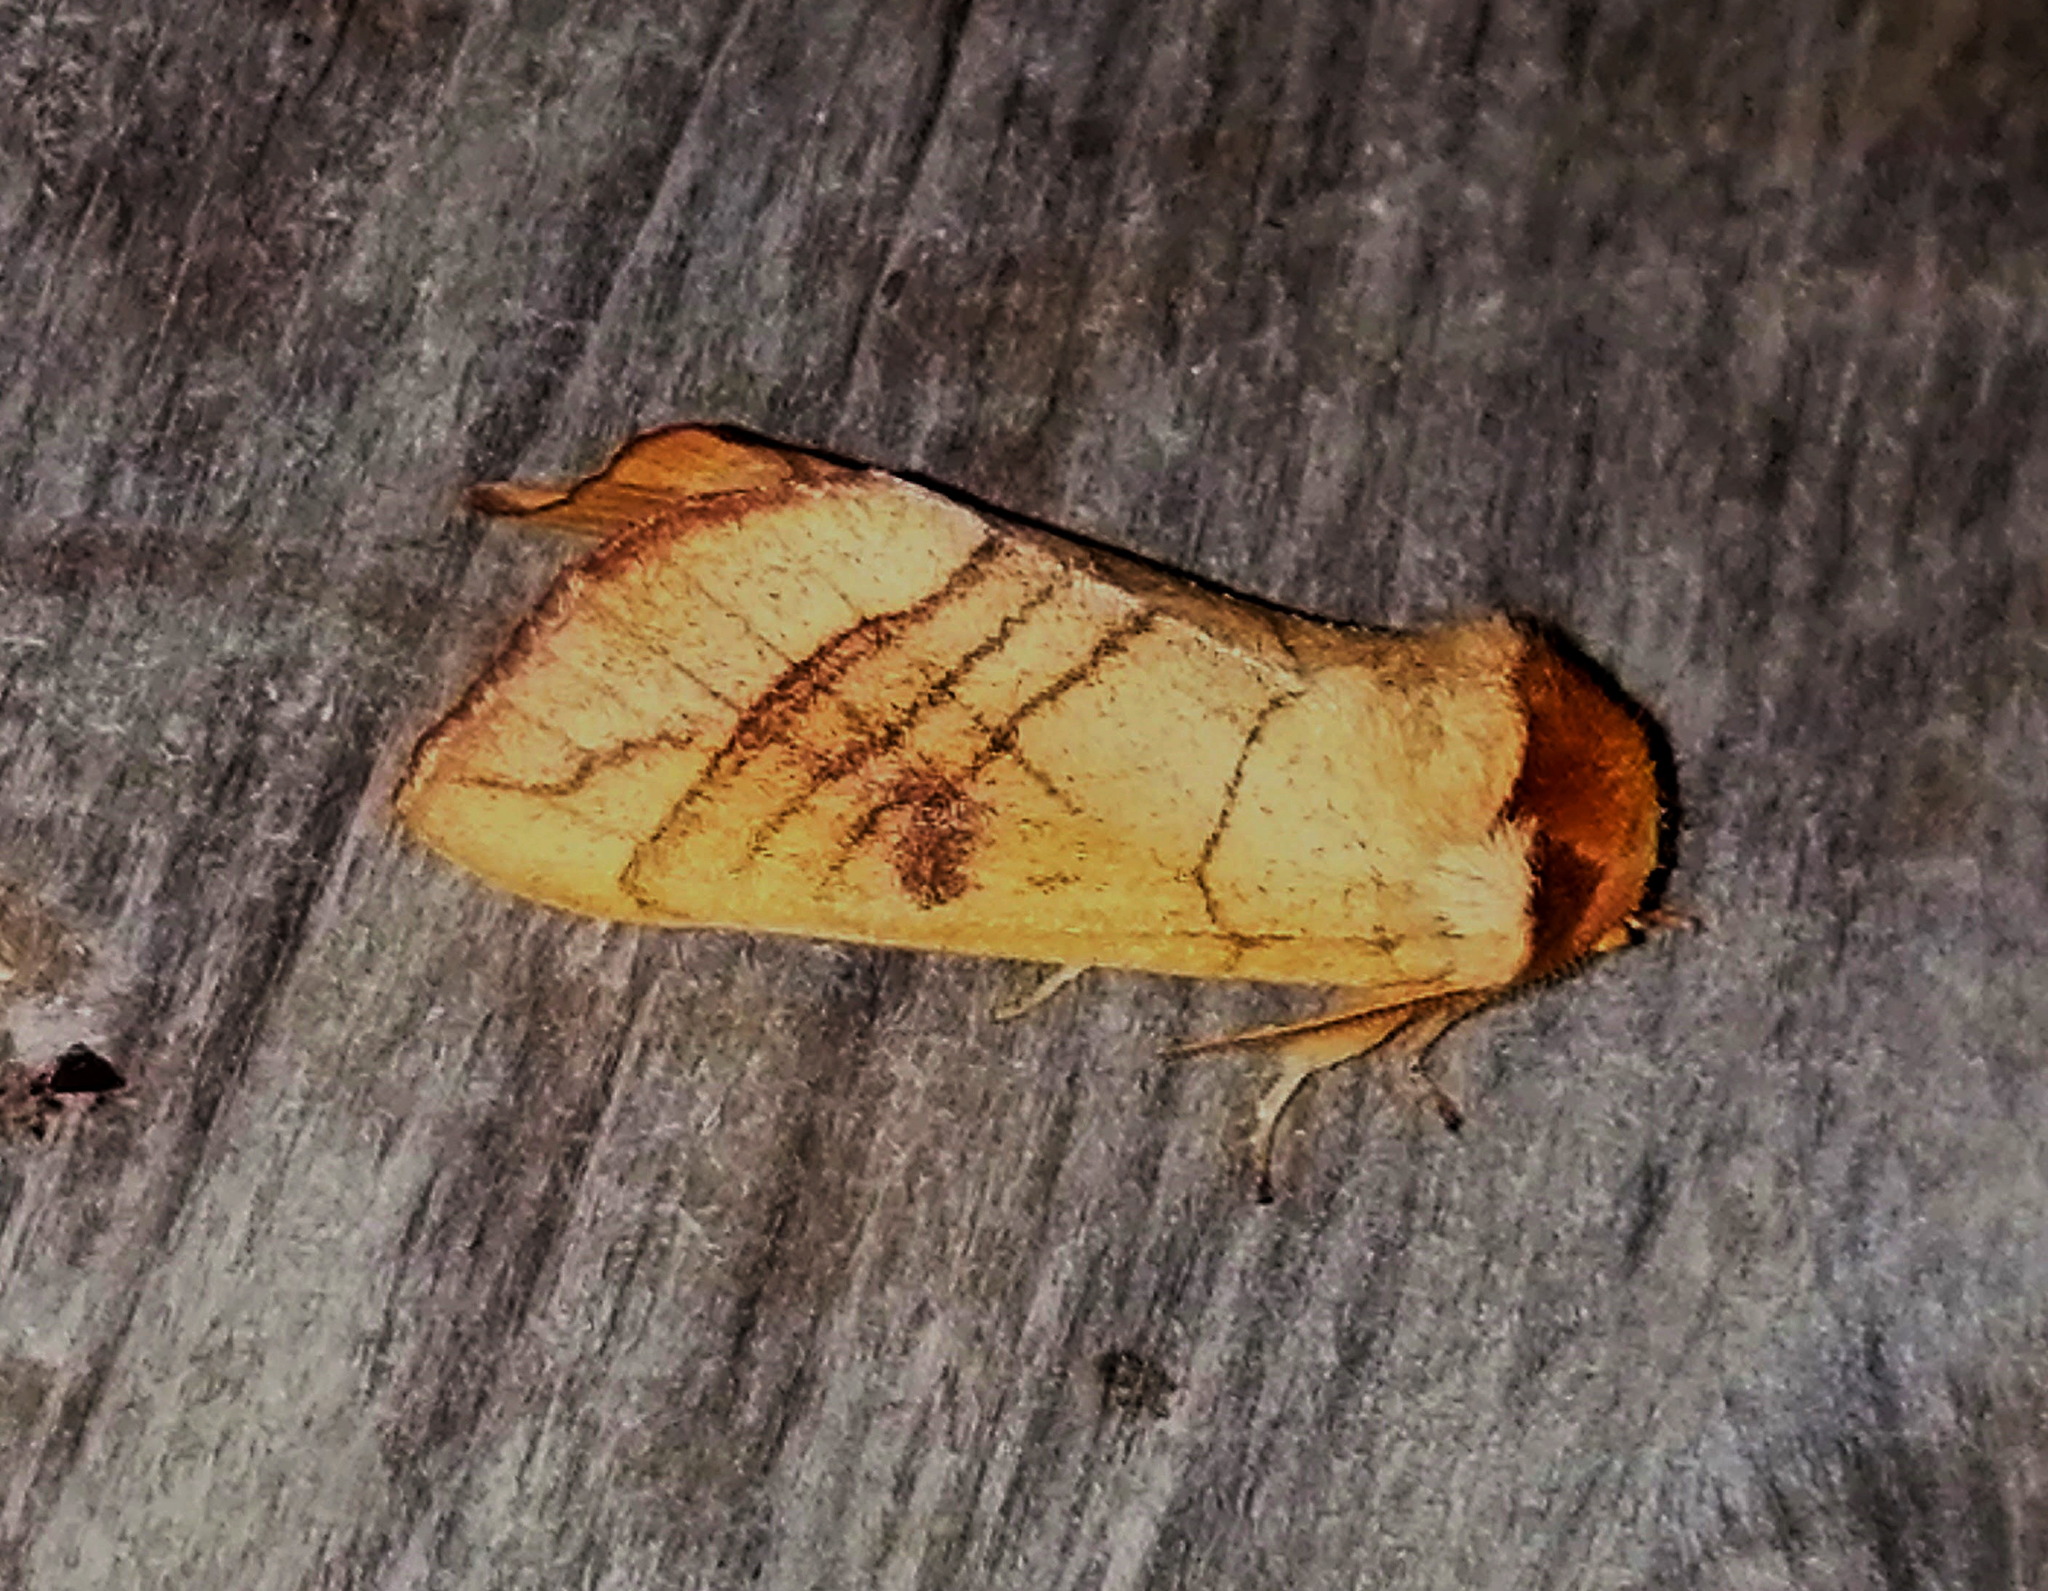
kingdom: Animalia
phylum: Arthropoda
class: Insecta
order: Lepidoptera
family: Notodontidae
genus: Datana
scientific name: Datana perspicua
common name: Spotted datana
